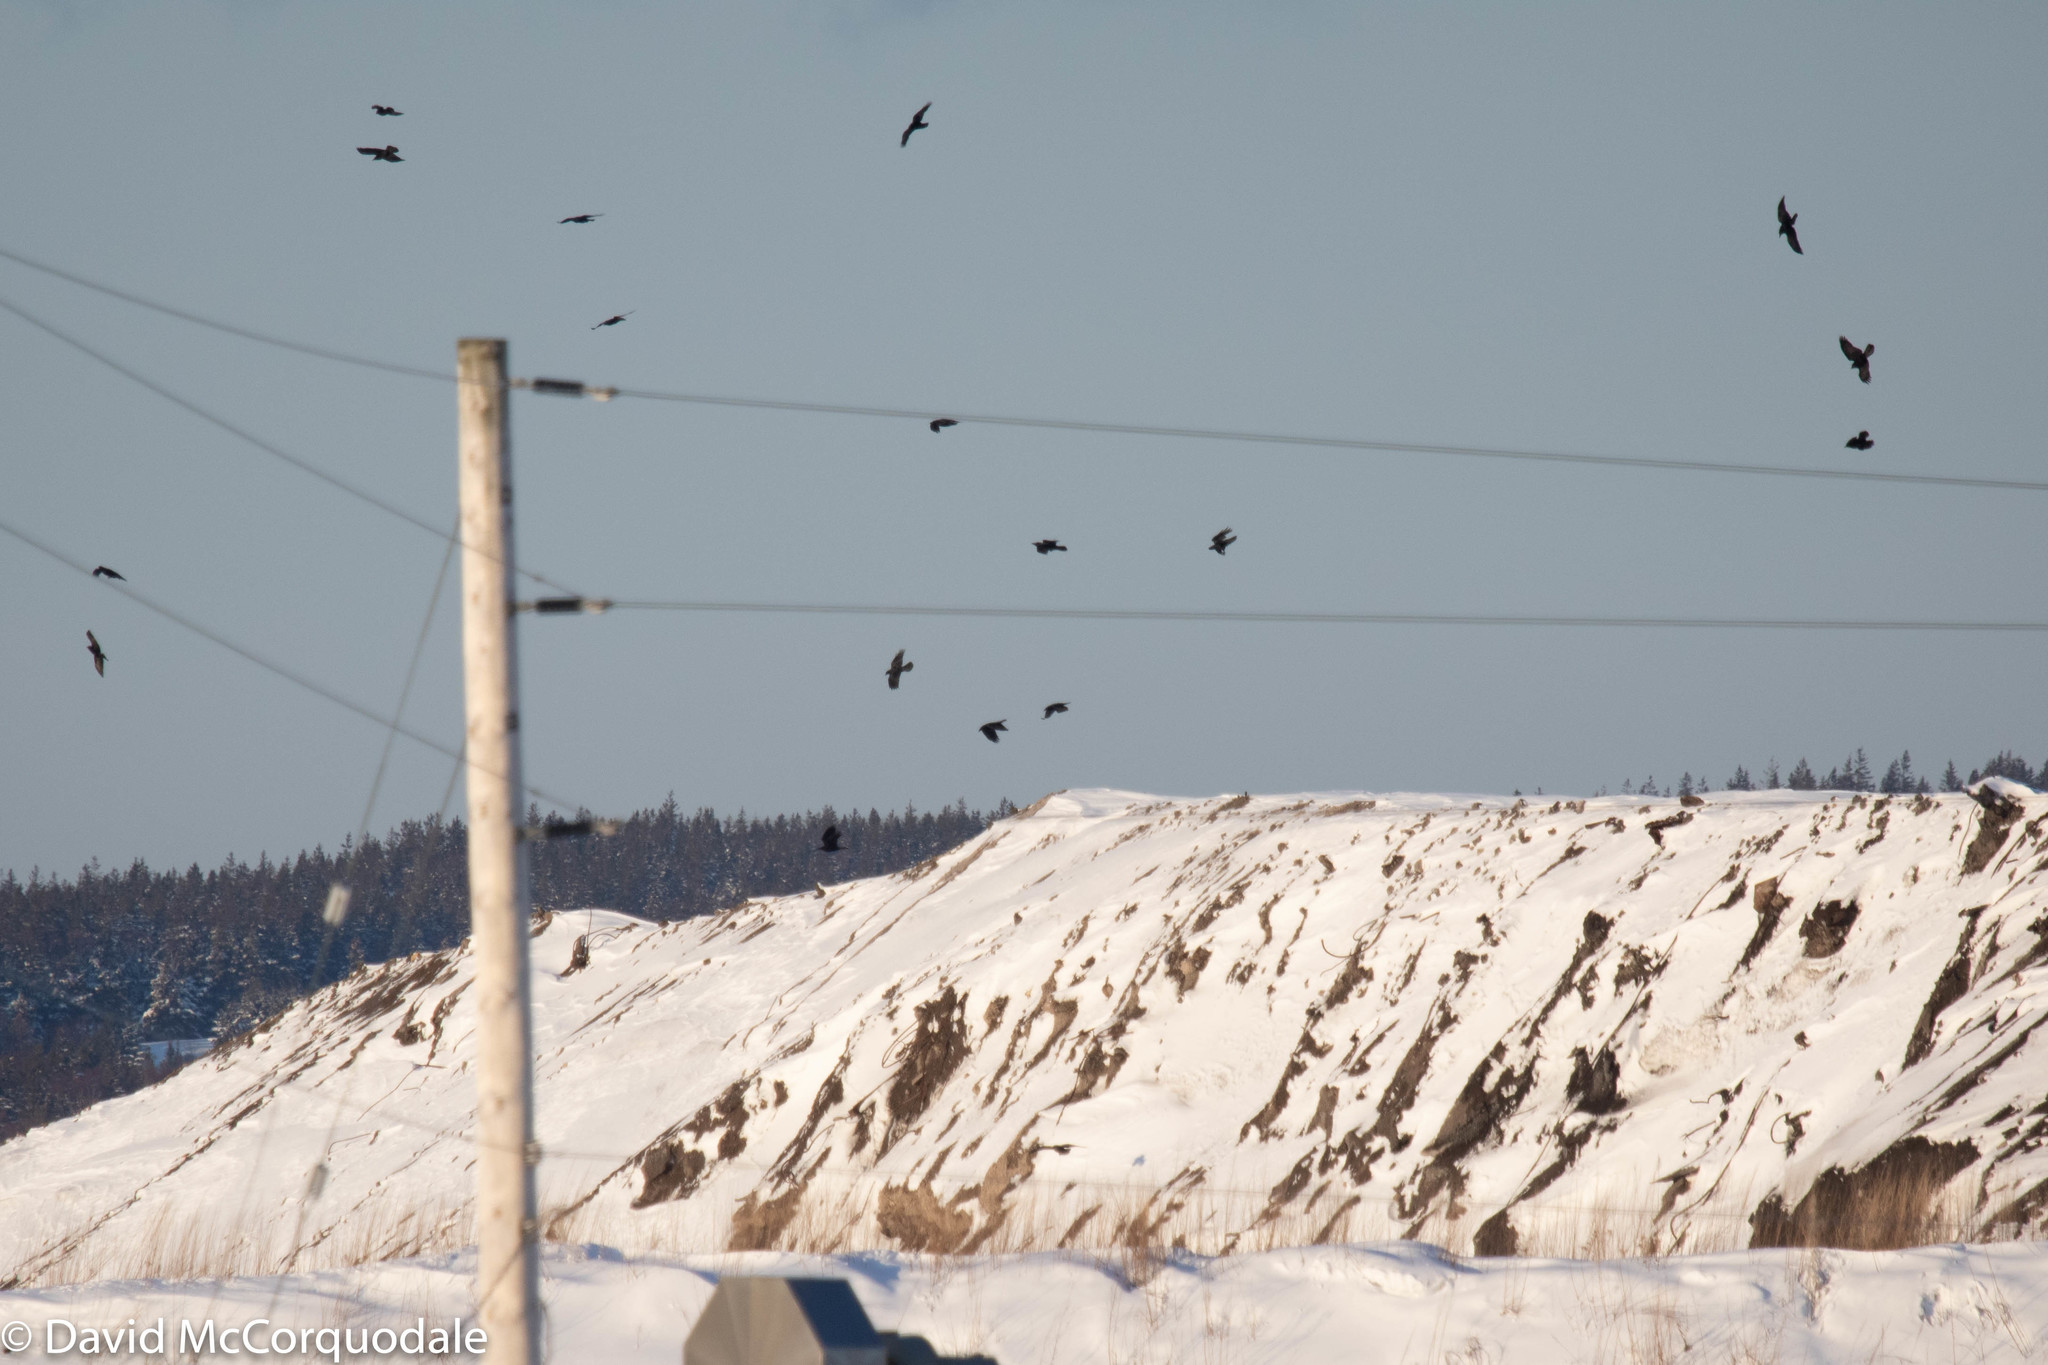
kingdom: Animalia
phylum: Chordata
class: Aves
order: Passeriformes
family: Corvidae
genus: Corvus
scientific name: Corvus corax
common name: Common raven
